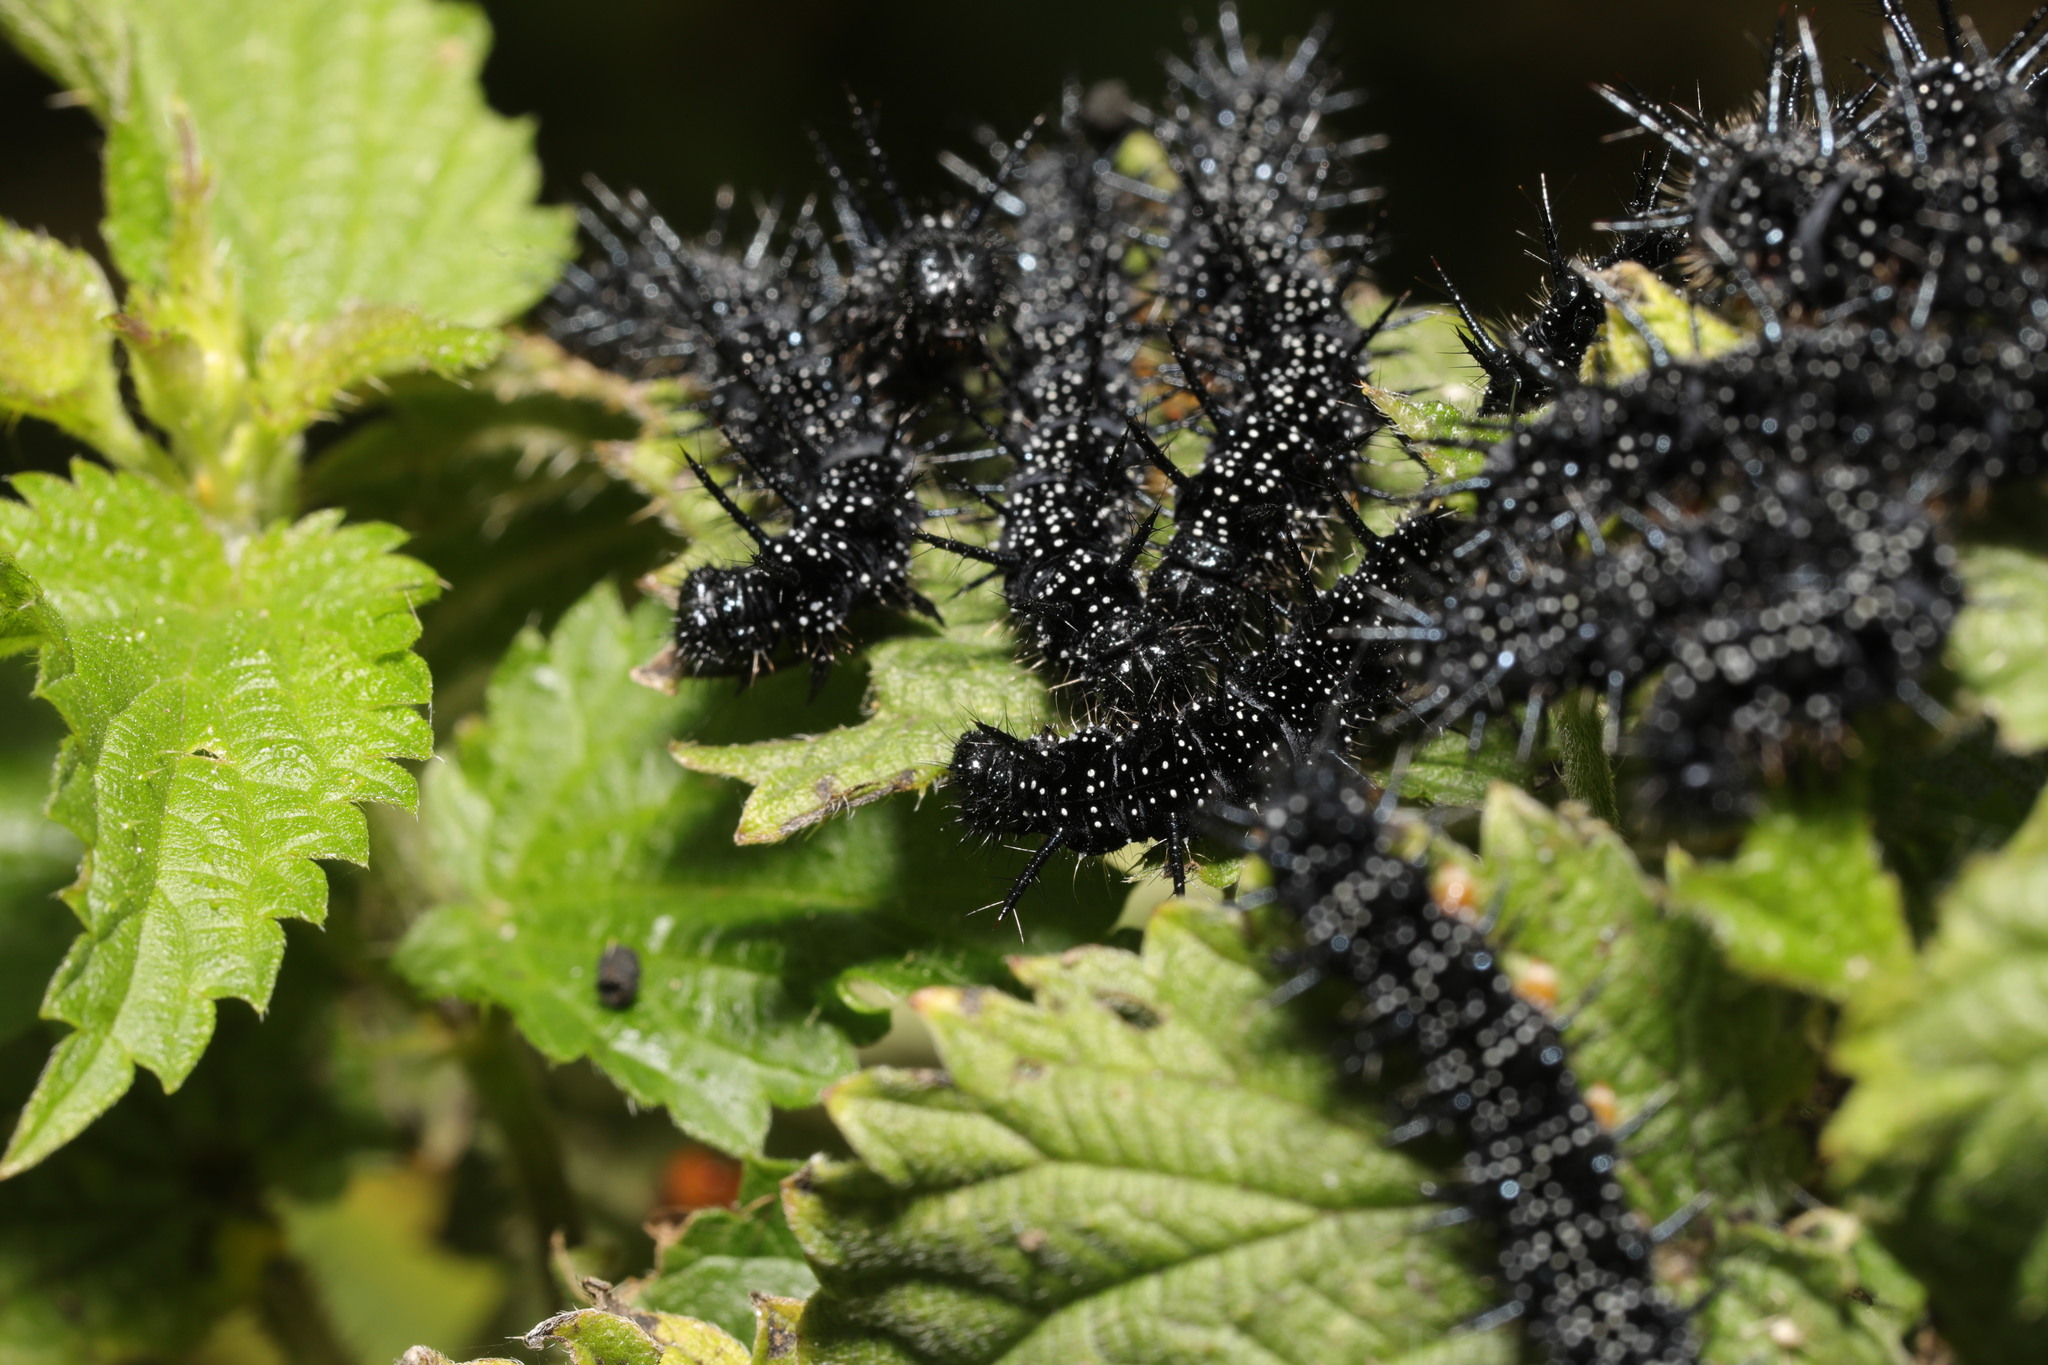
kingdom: Animalia
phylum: Arthropoda
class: Insecta
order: Lepidoptera
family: Nymphalidae
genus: Aglais
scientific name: Aglais io
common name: Peacock
